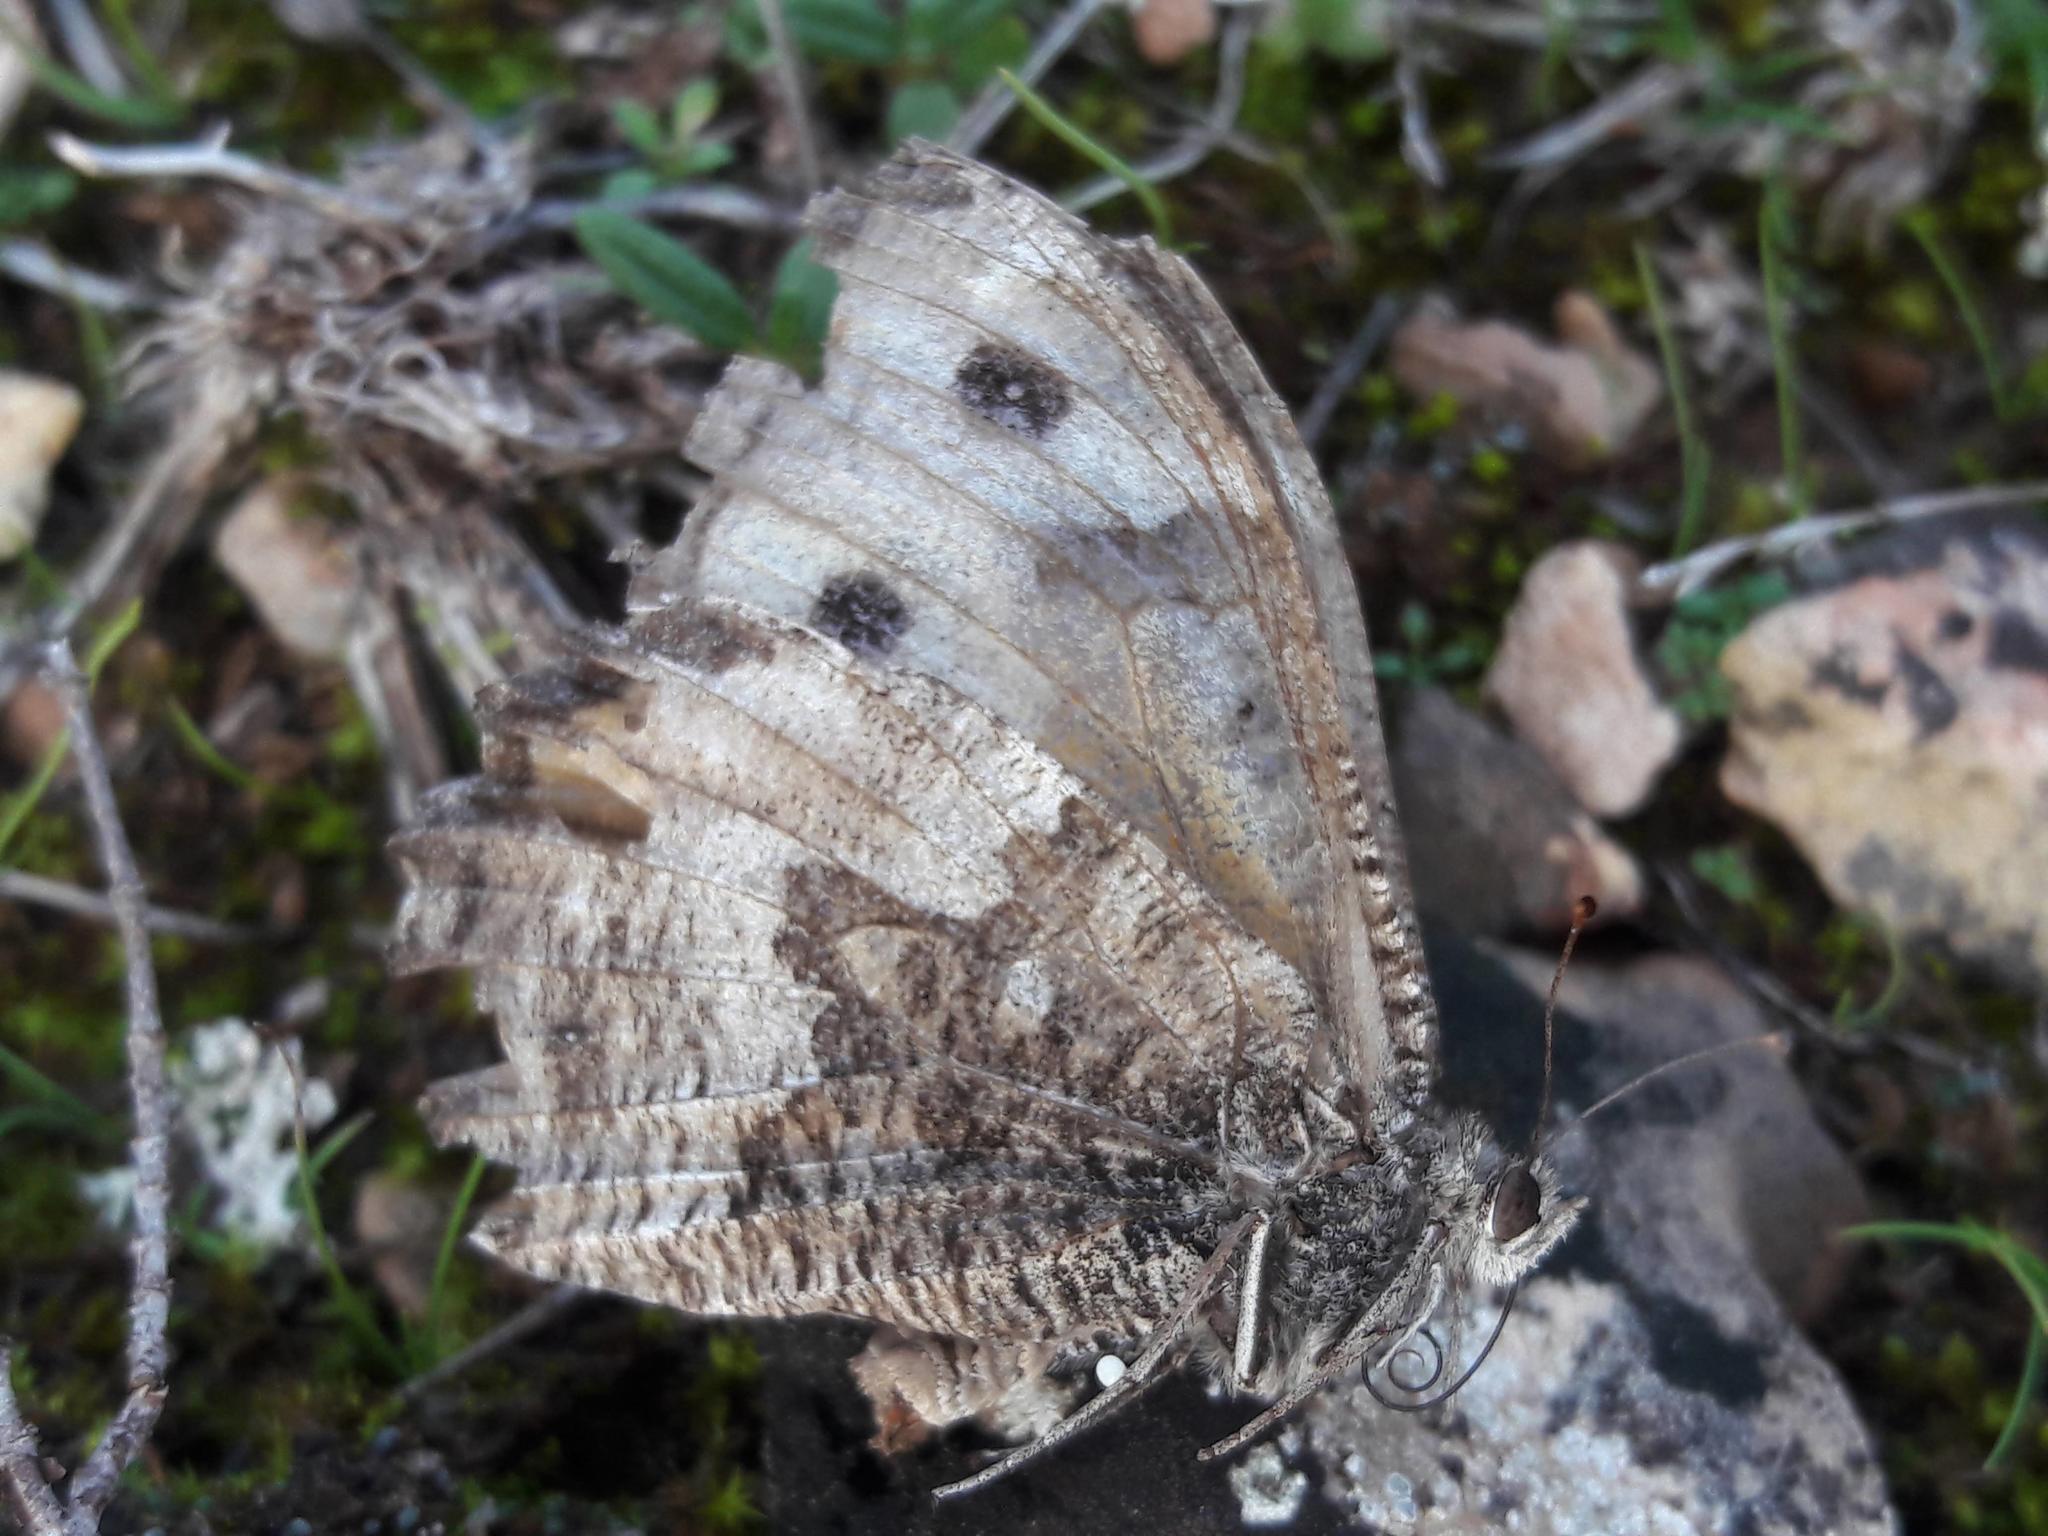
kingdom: Animalia
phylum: Arthropoda
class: Insecta
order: Lepidoptera
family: Nymphalidae
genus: Hipparchia
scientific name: Hipparchia semele
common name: Grayling
